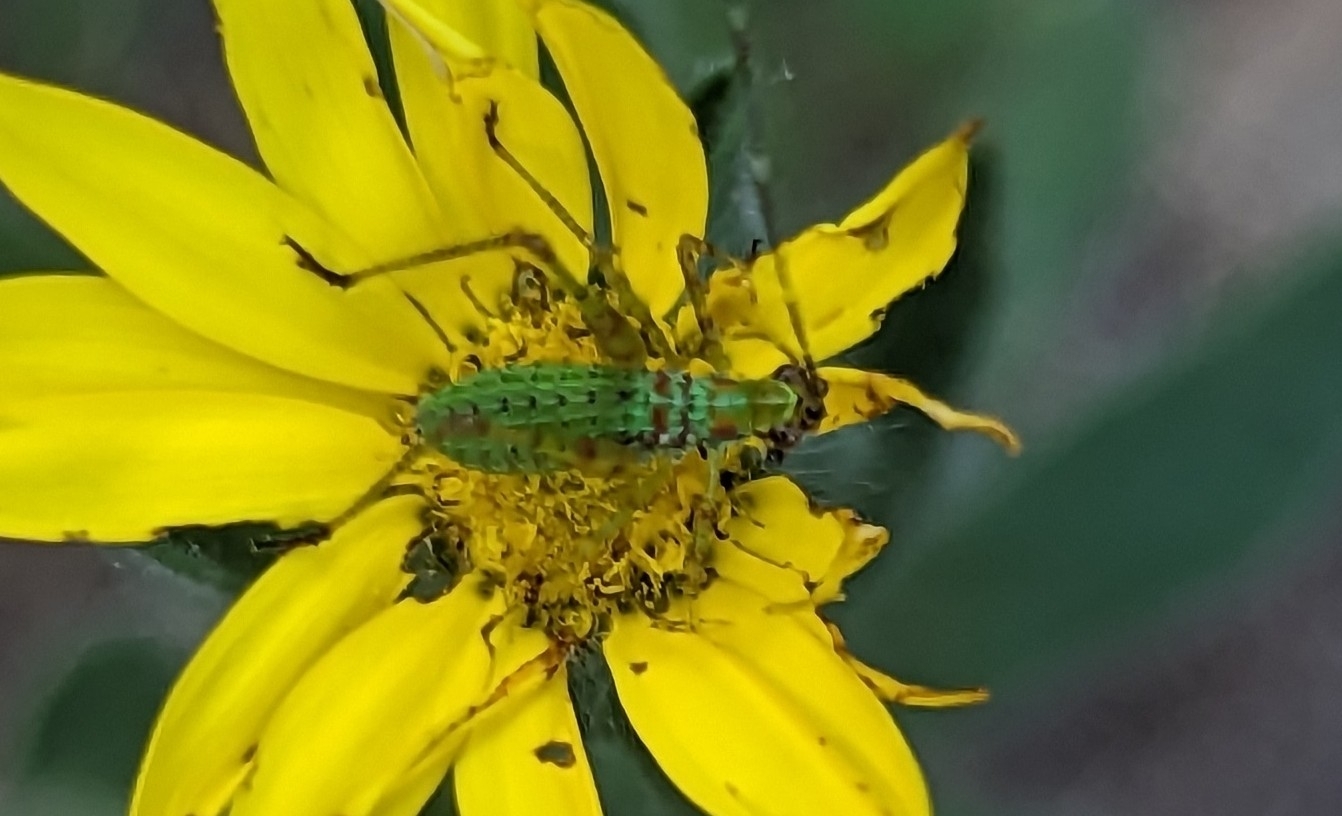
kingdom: Animalia
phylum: Arthropoda
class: Insecta
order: Orthoptera
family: Tettigoniidae
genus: Scudderia
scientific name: Scudderia furcata
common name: Fork-tailed bush katydid
